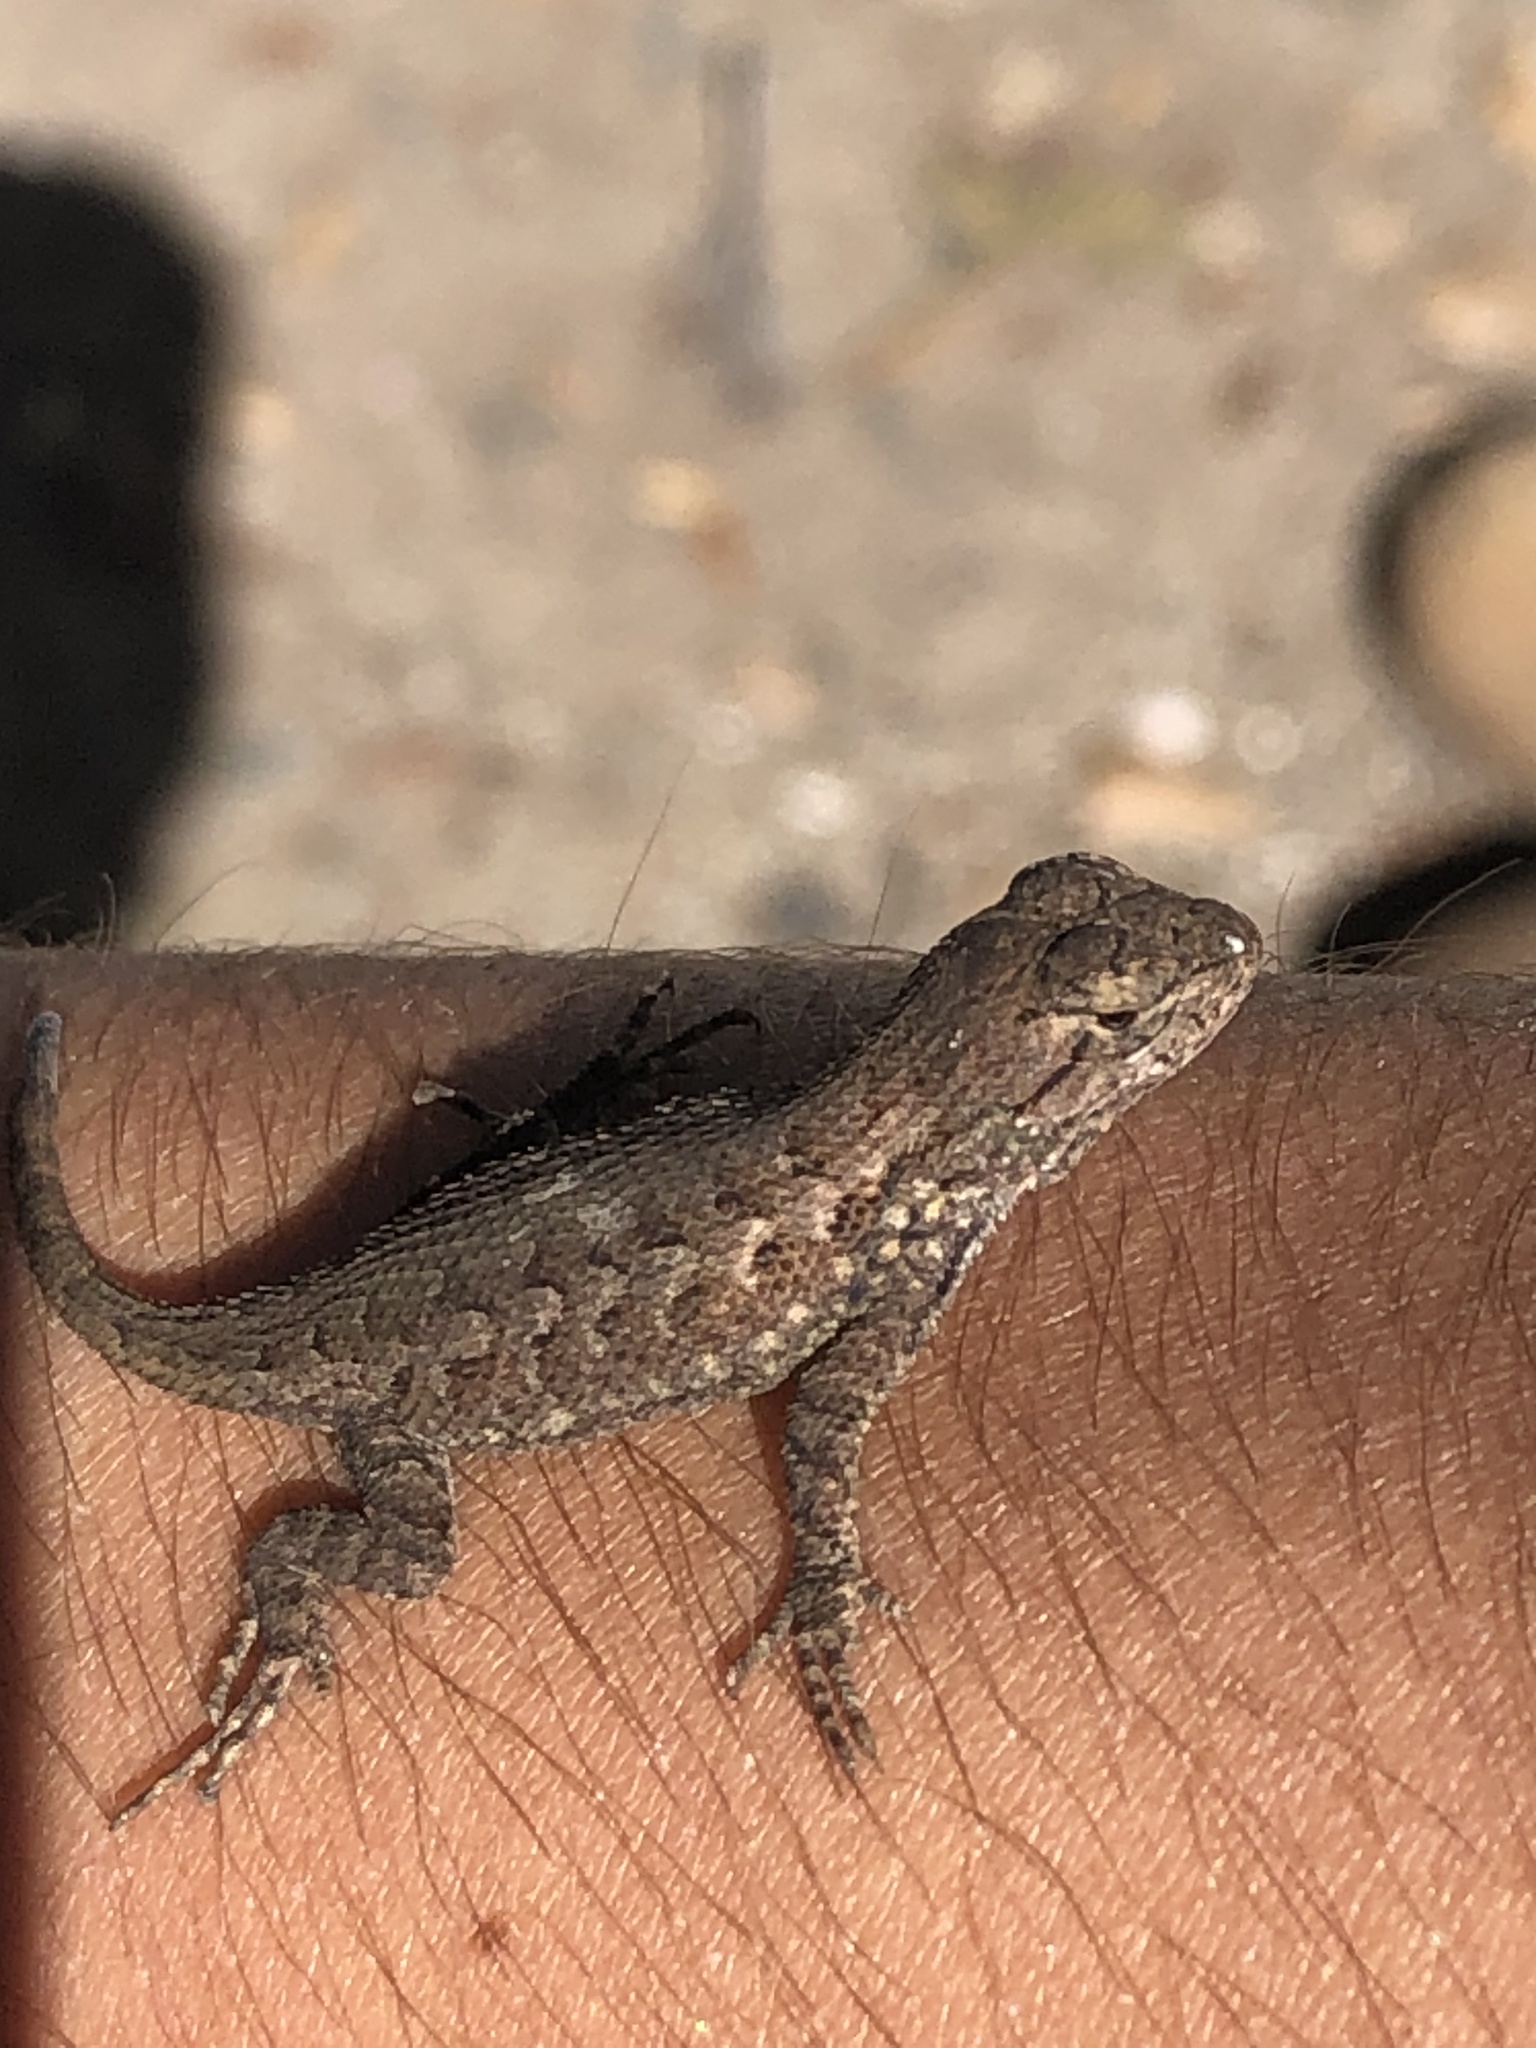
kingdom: Animalia
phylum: Chordata
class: Squamata
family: Phrynosomatidae
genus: Sceloporus
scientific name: Sceloporus occidentalis
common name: Western fence lizard
